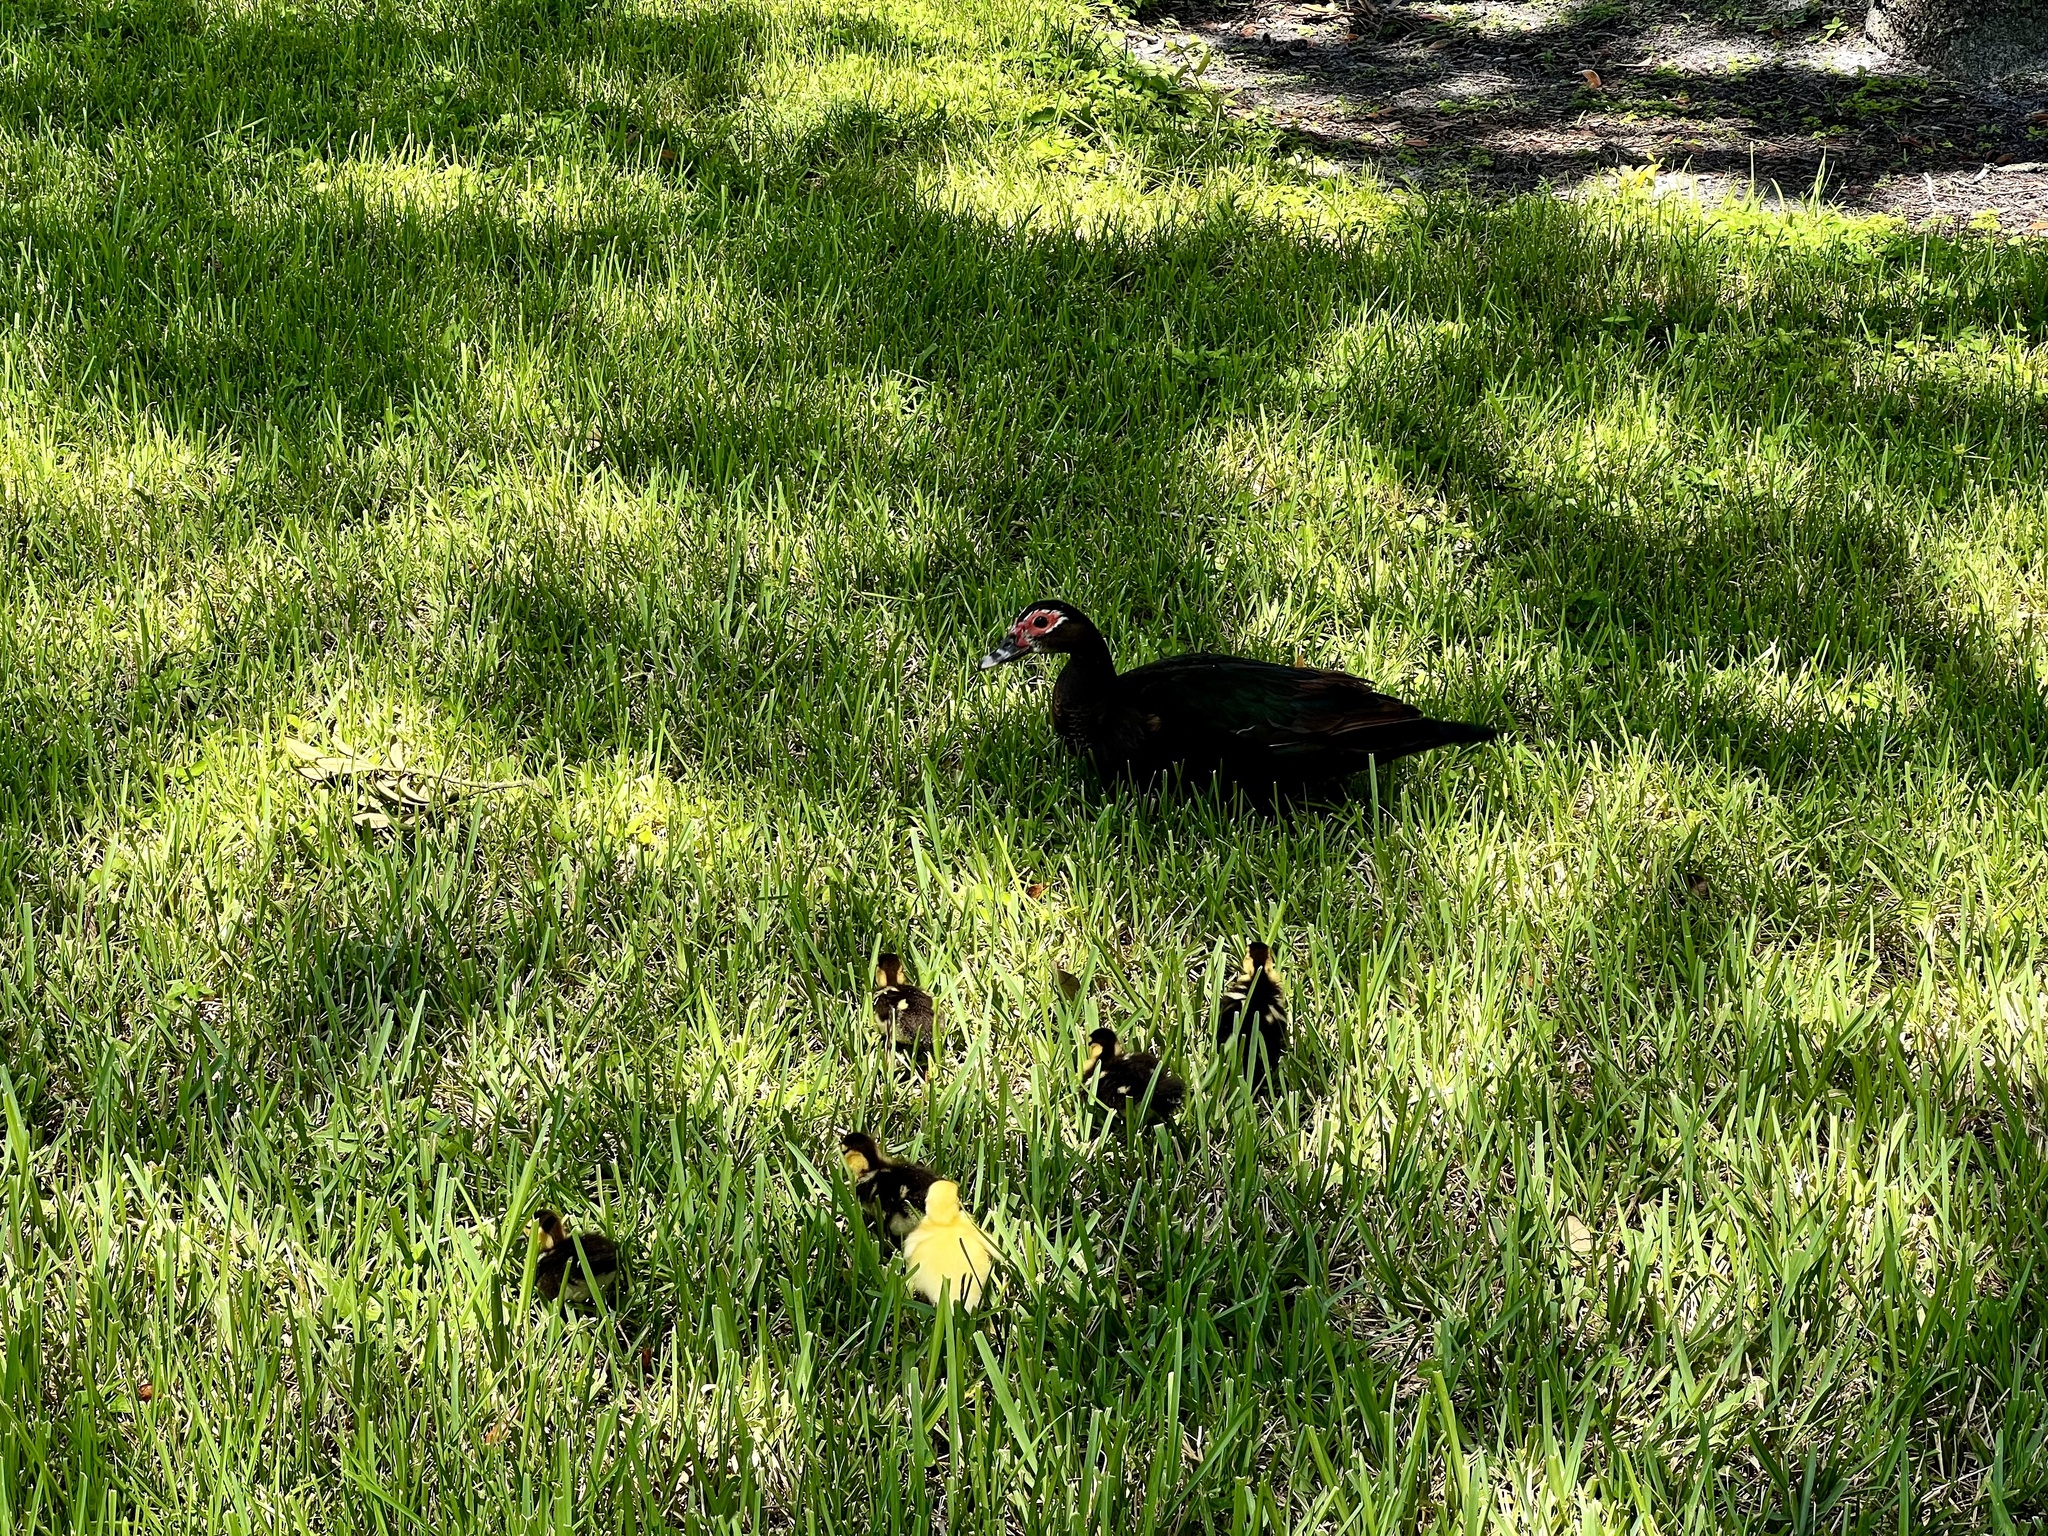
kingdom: Animalia
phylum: Chordata
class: Aves
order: Anseriformes
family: Anatidae
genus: Cairina
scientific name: Cairina moschata
